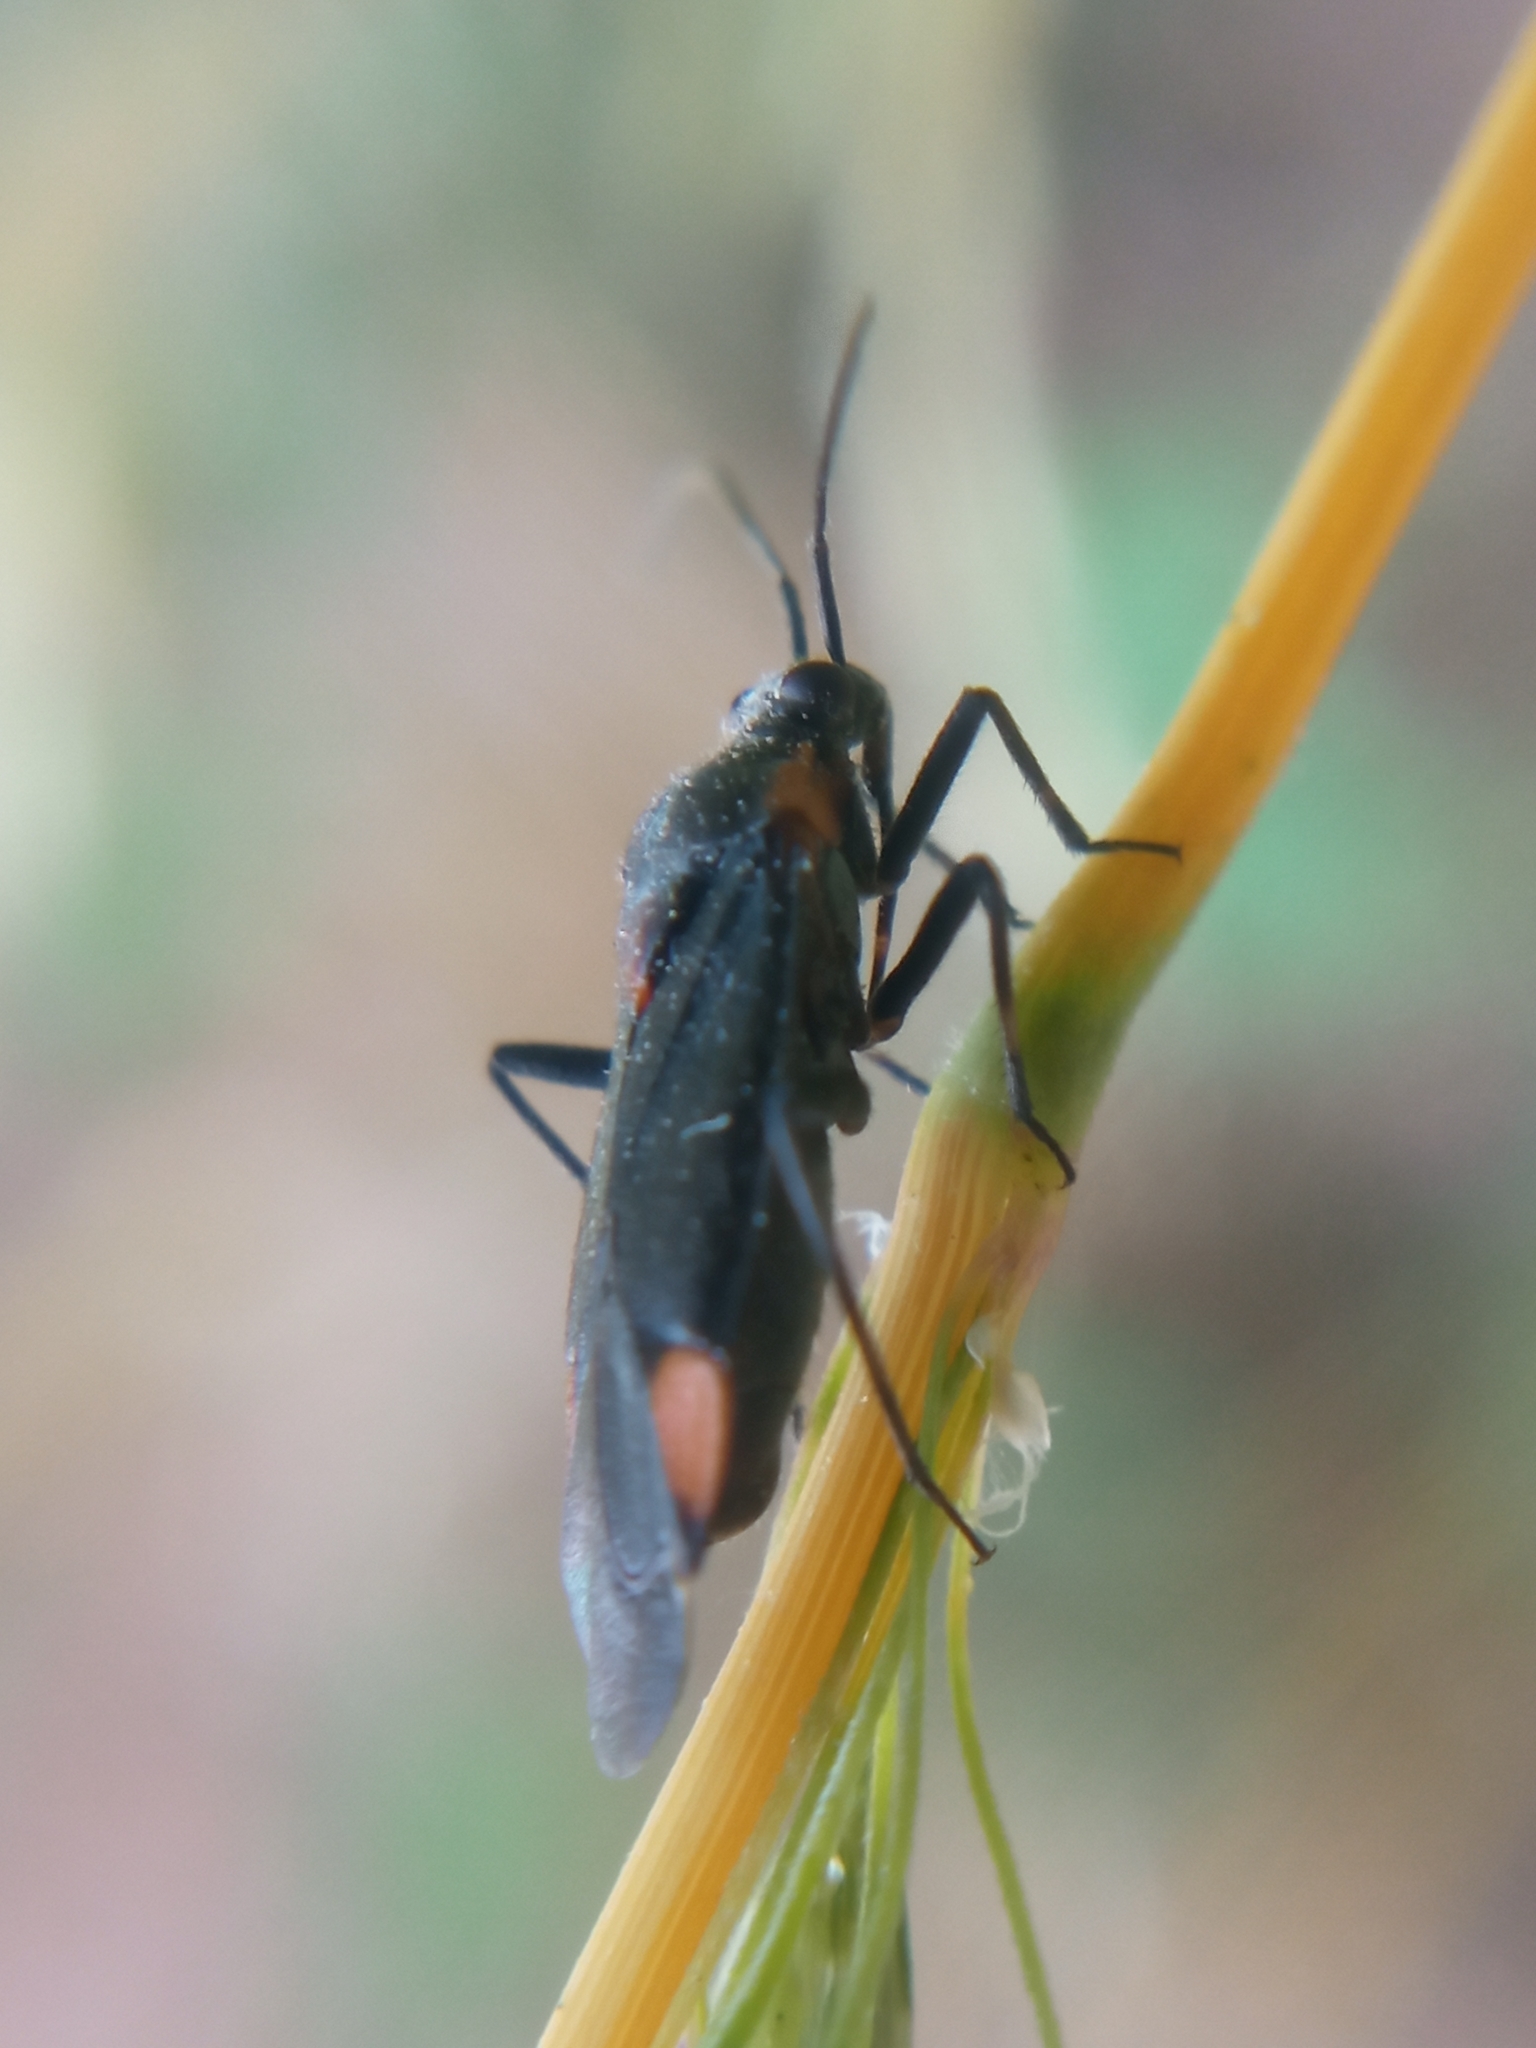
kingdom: Animalia
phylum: Arthropoda
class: Insecta
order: Hemiptera
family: Miridae
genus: Capsodes
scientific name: Capsodes flavomarginatus
